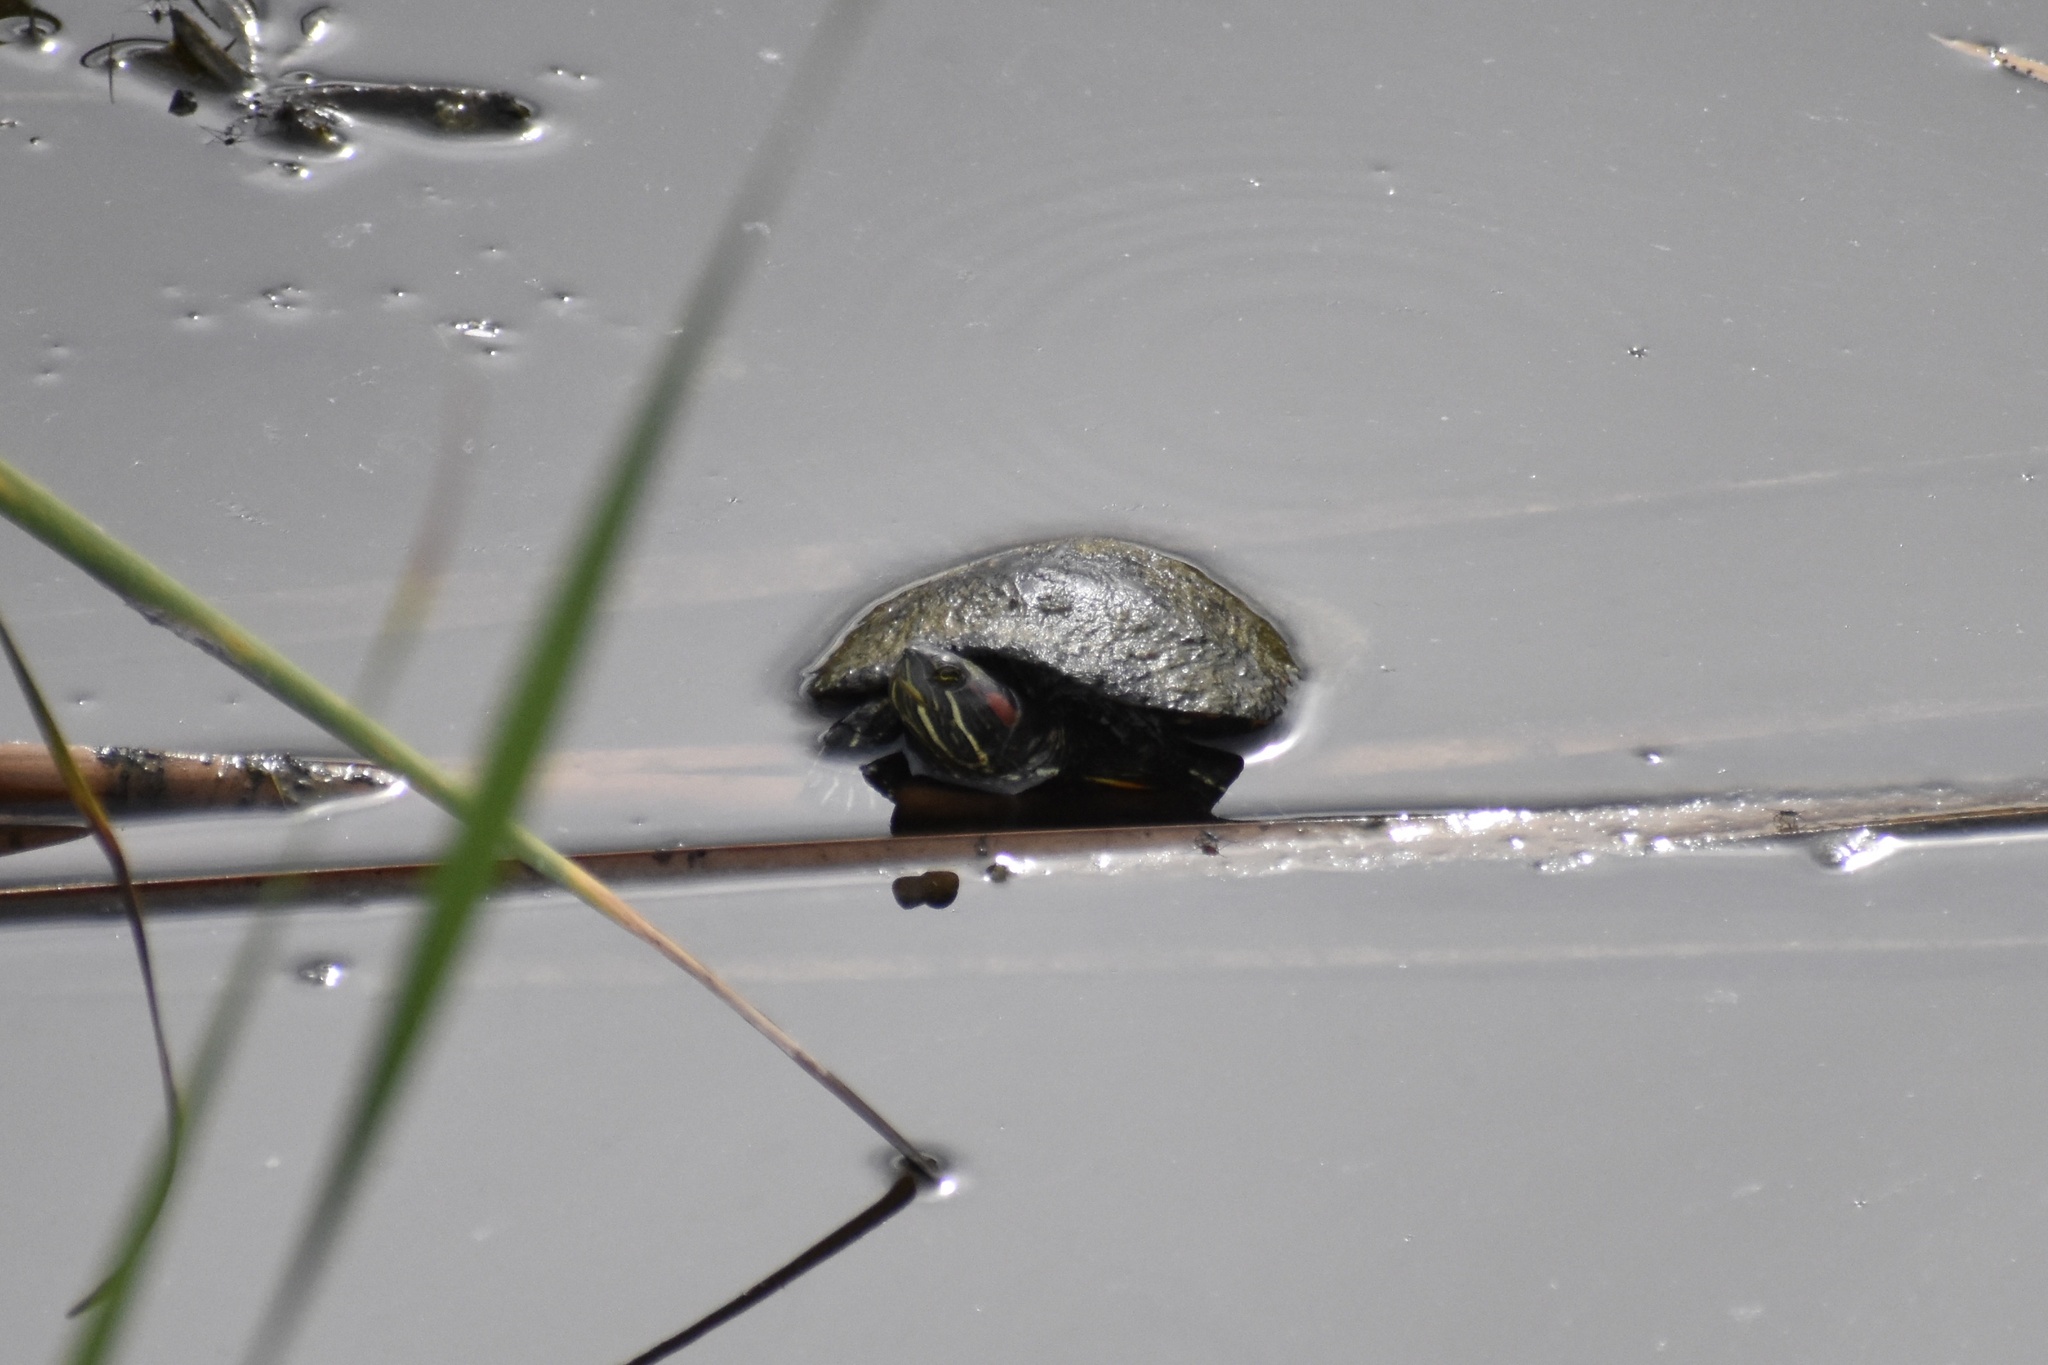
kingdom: Animalia
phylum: Chordata
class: Testudines
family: Emydidae
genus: Trachemys
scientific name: Trachemys scripta
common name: Slider
